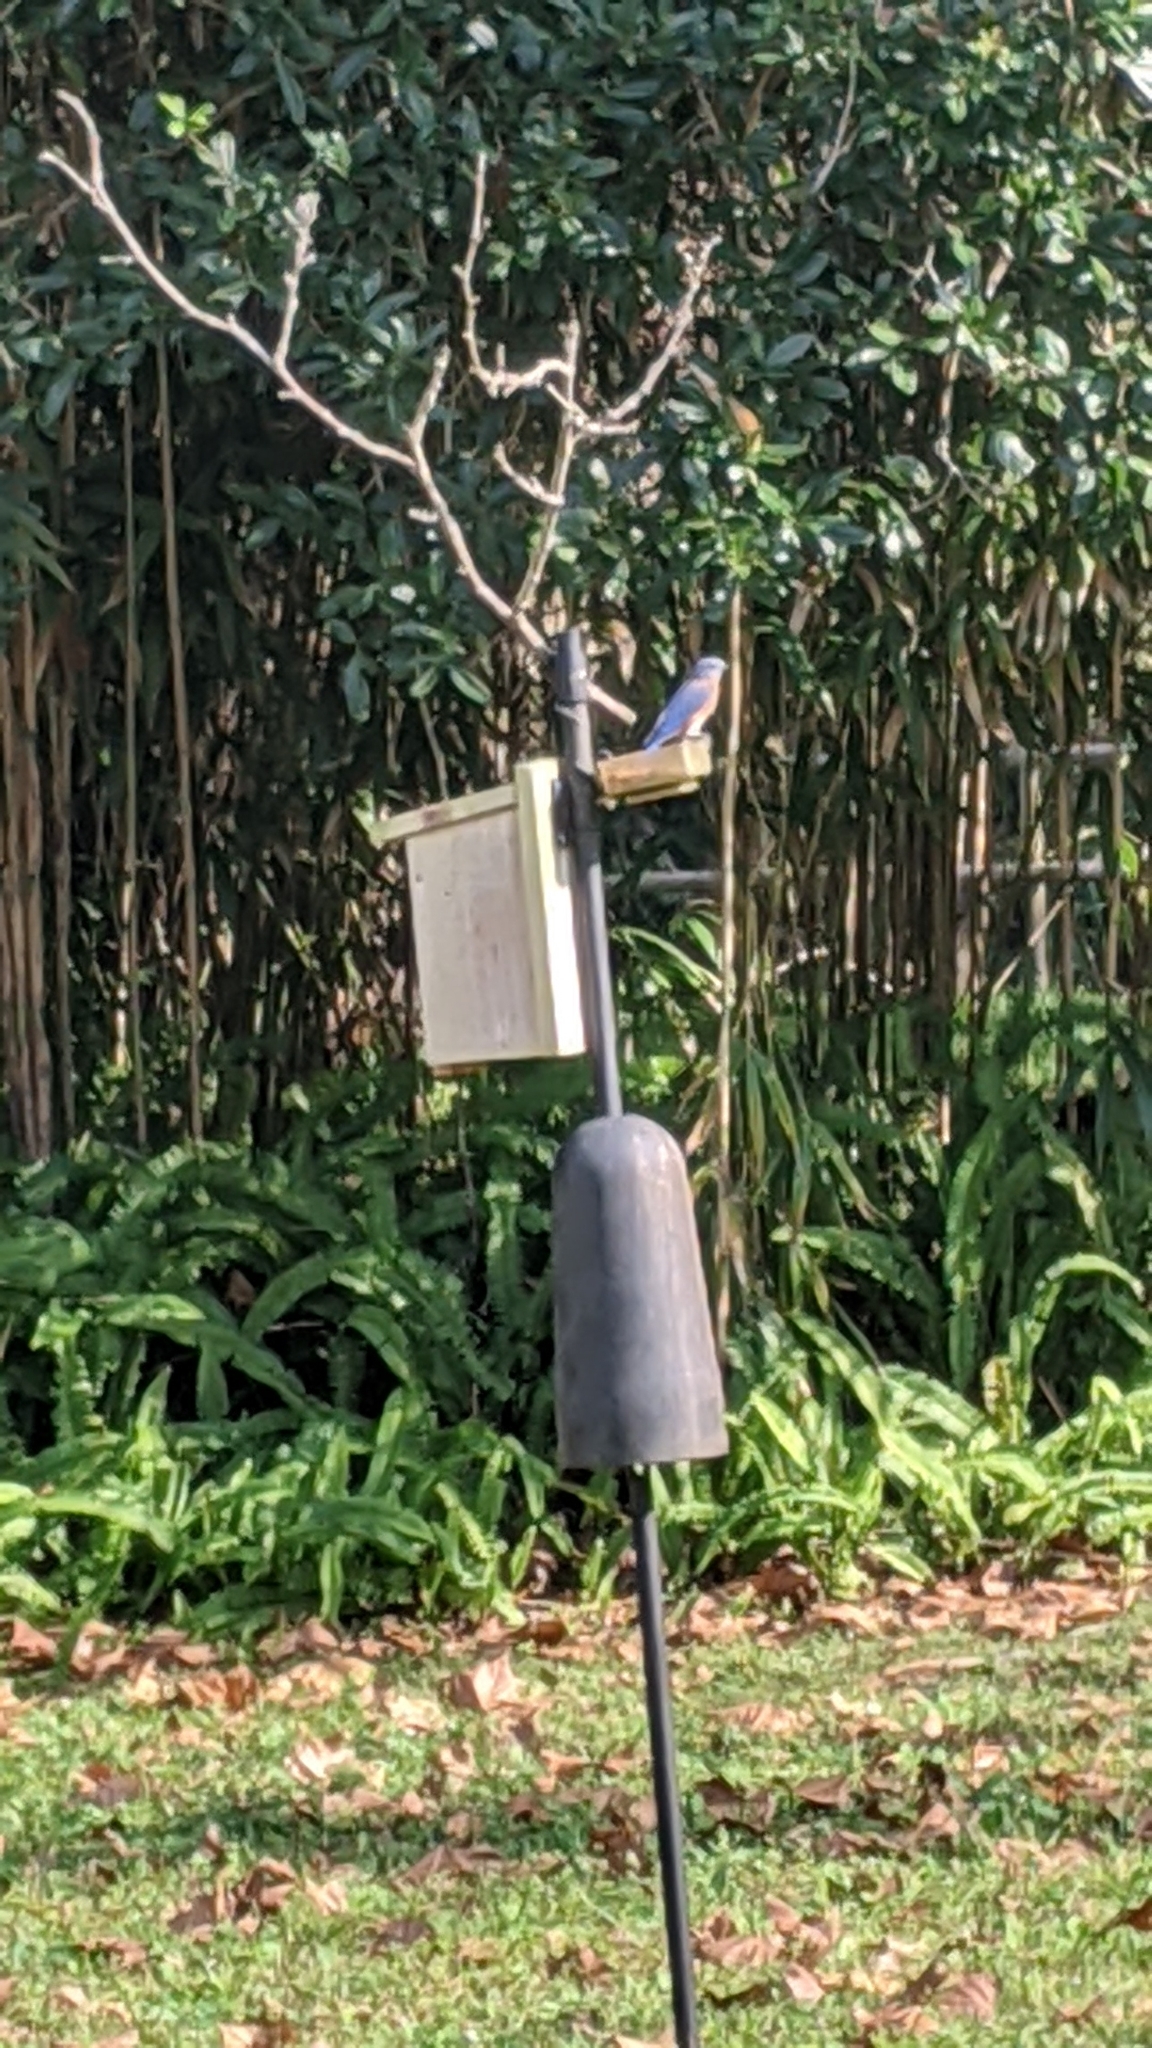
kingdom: Animalia
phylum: Chordata
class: Aves
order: Passeriformes
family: Turdidae
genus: Sialia
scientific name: Sialia sialis
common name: Eastern bluebird
